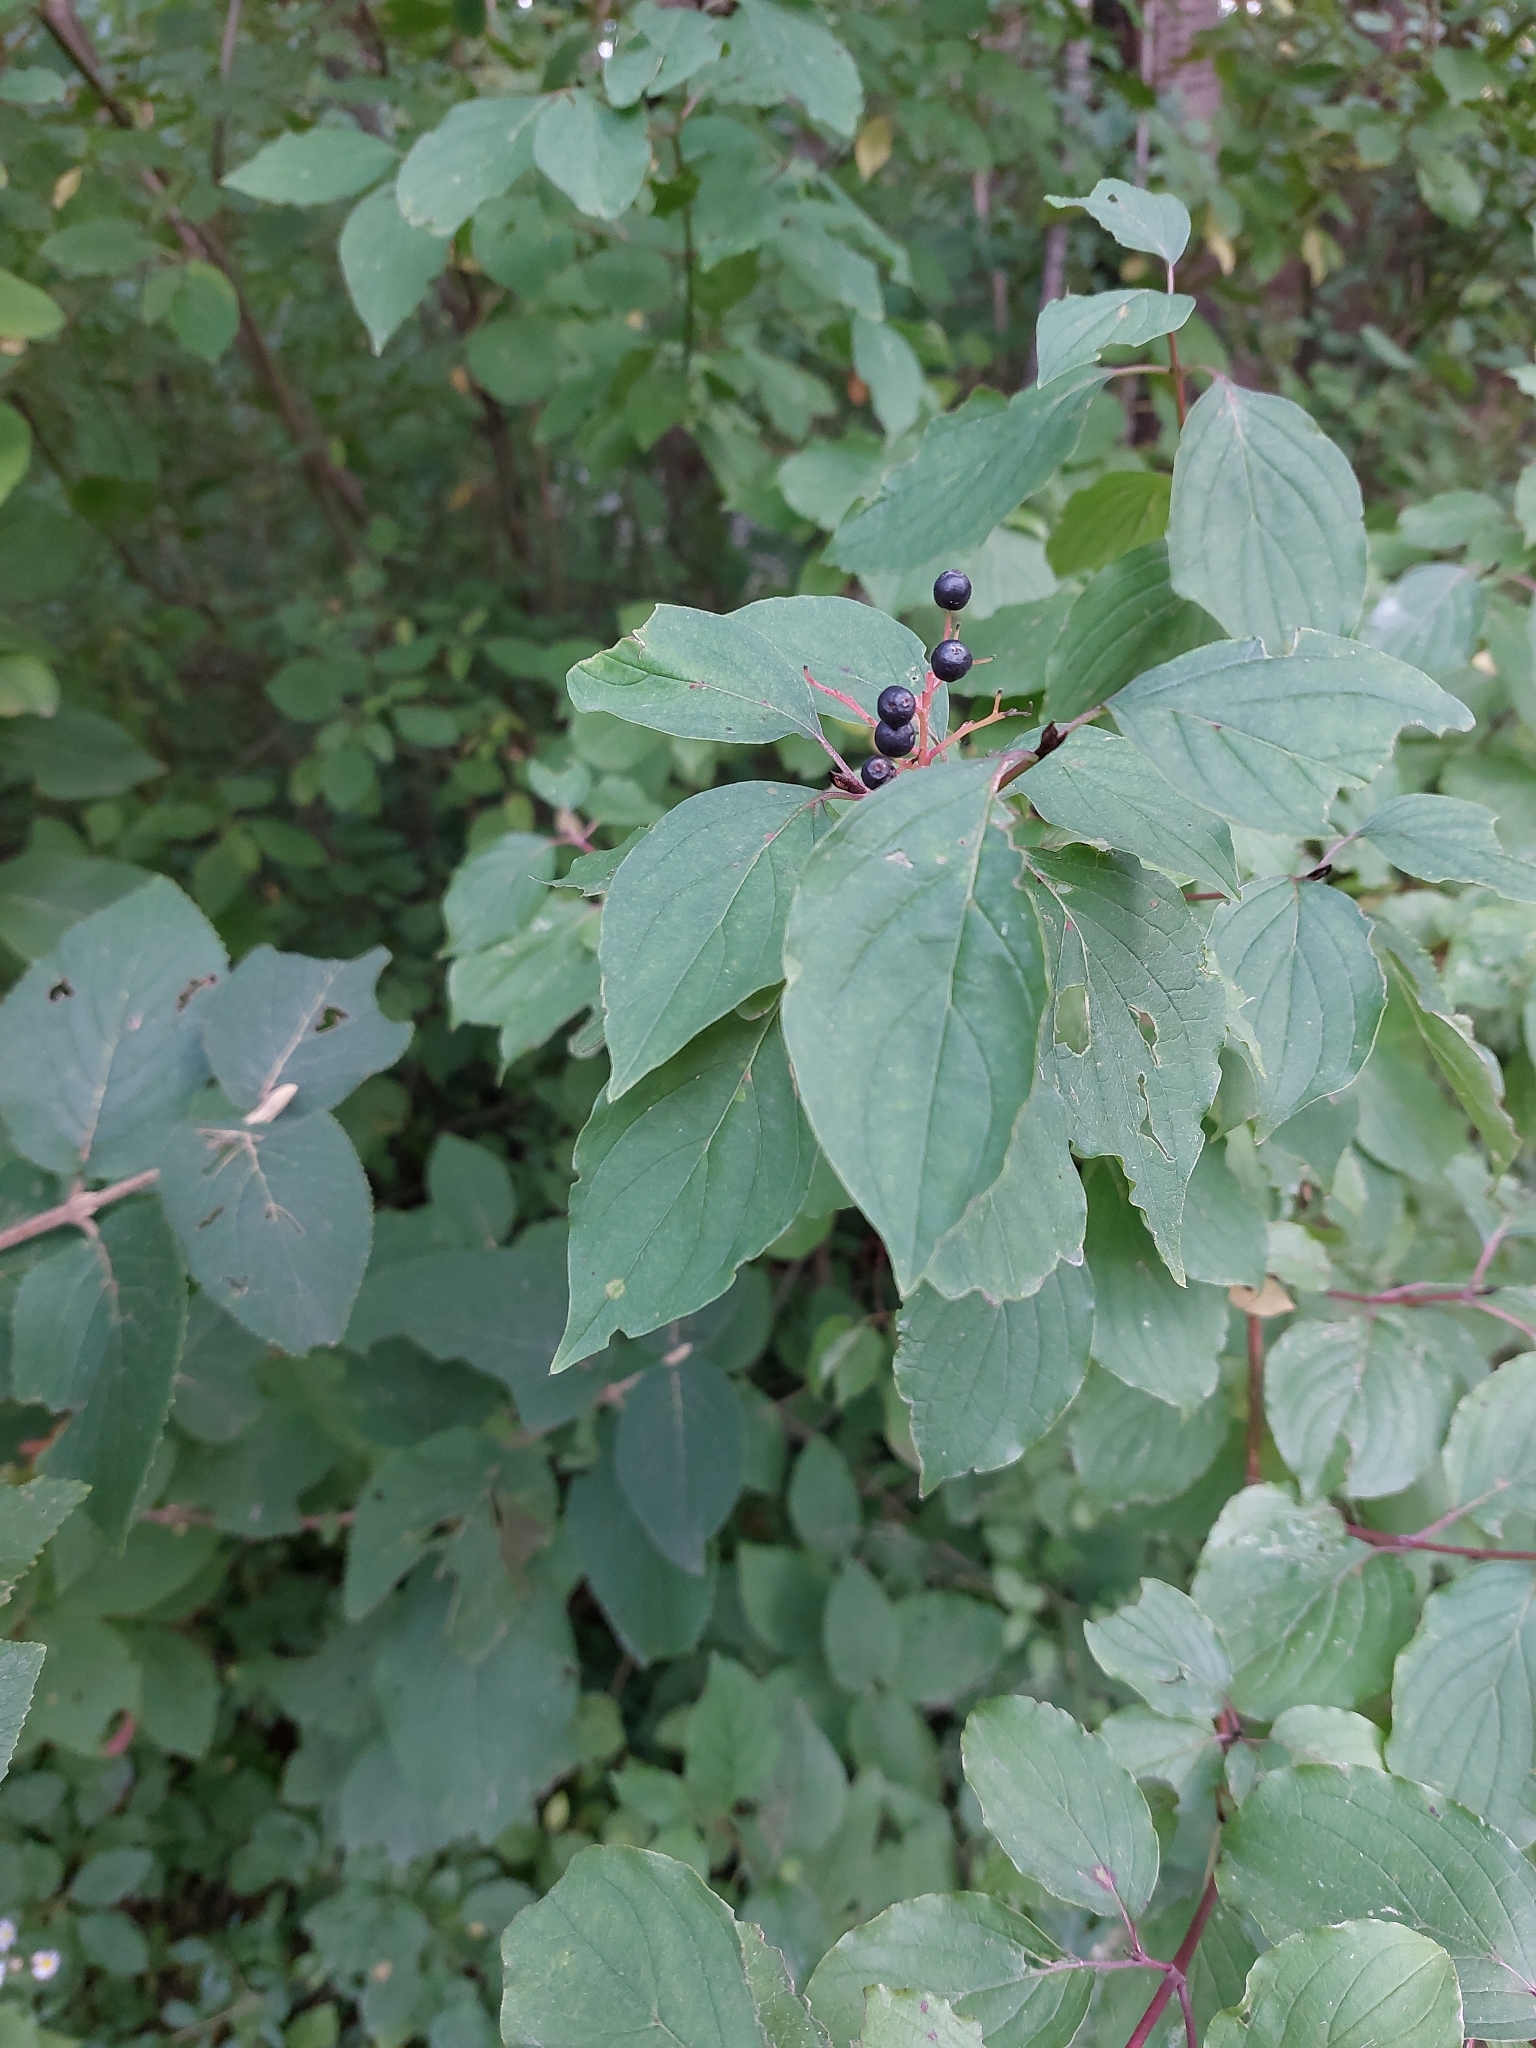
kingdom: Plantae
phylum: Tracheophyta
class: Magnoliopsida
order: Cornales
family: Cornaceae
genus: Cornus
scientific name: Cornus sanguinea
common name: Dogwood
